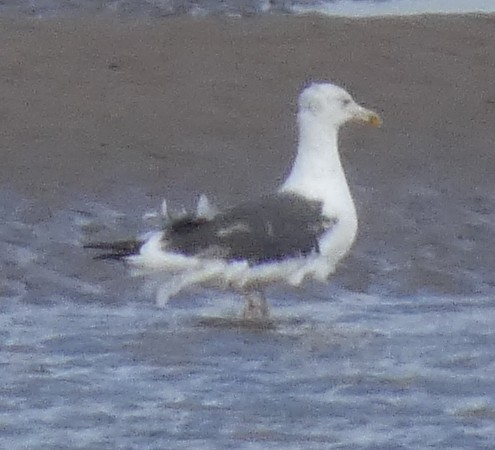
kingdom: Animalia
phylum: Chordata
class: Aves
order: Charadriiformes
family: Laridae
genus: Larus
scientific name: Larus marinus
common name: Great black-backed gull
